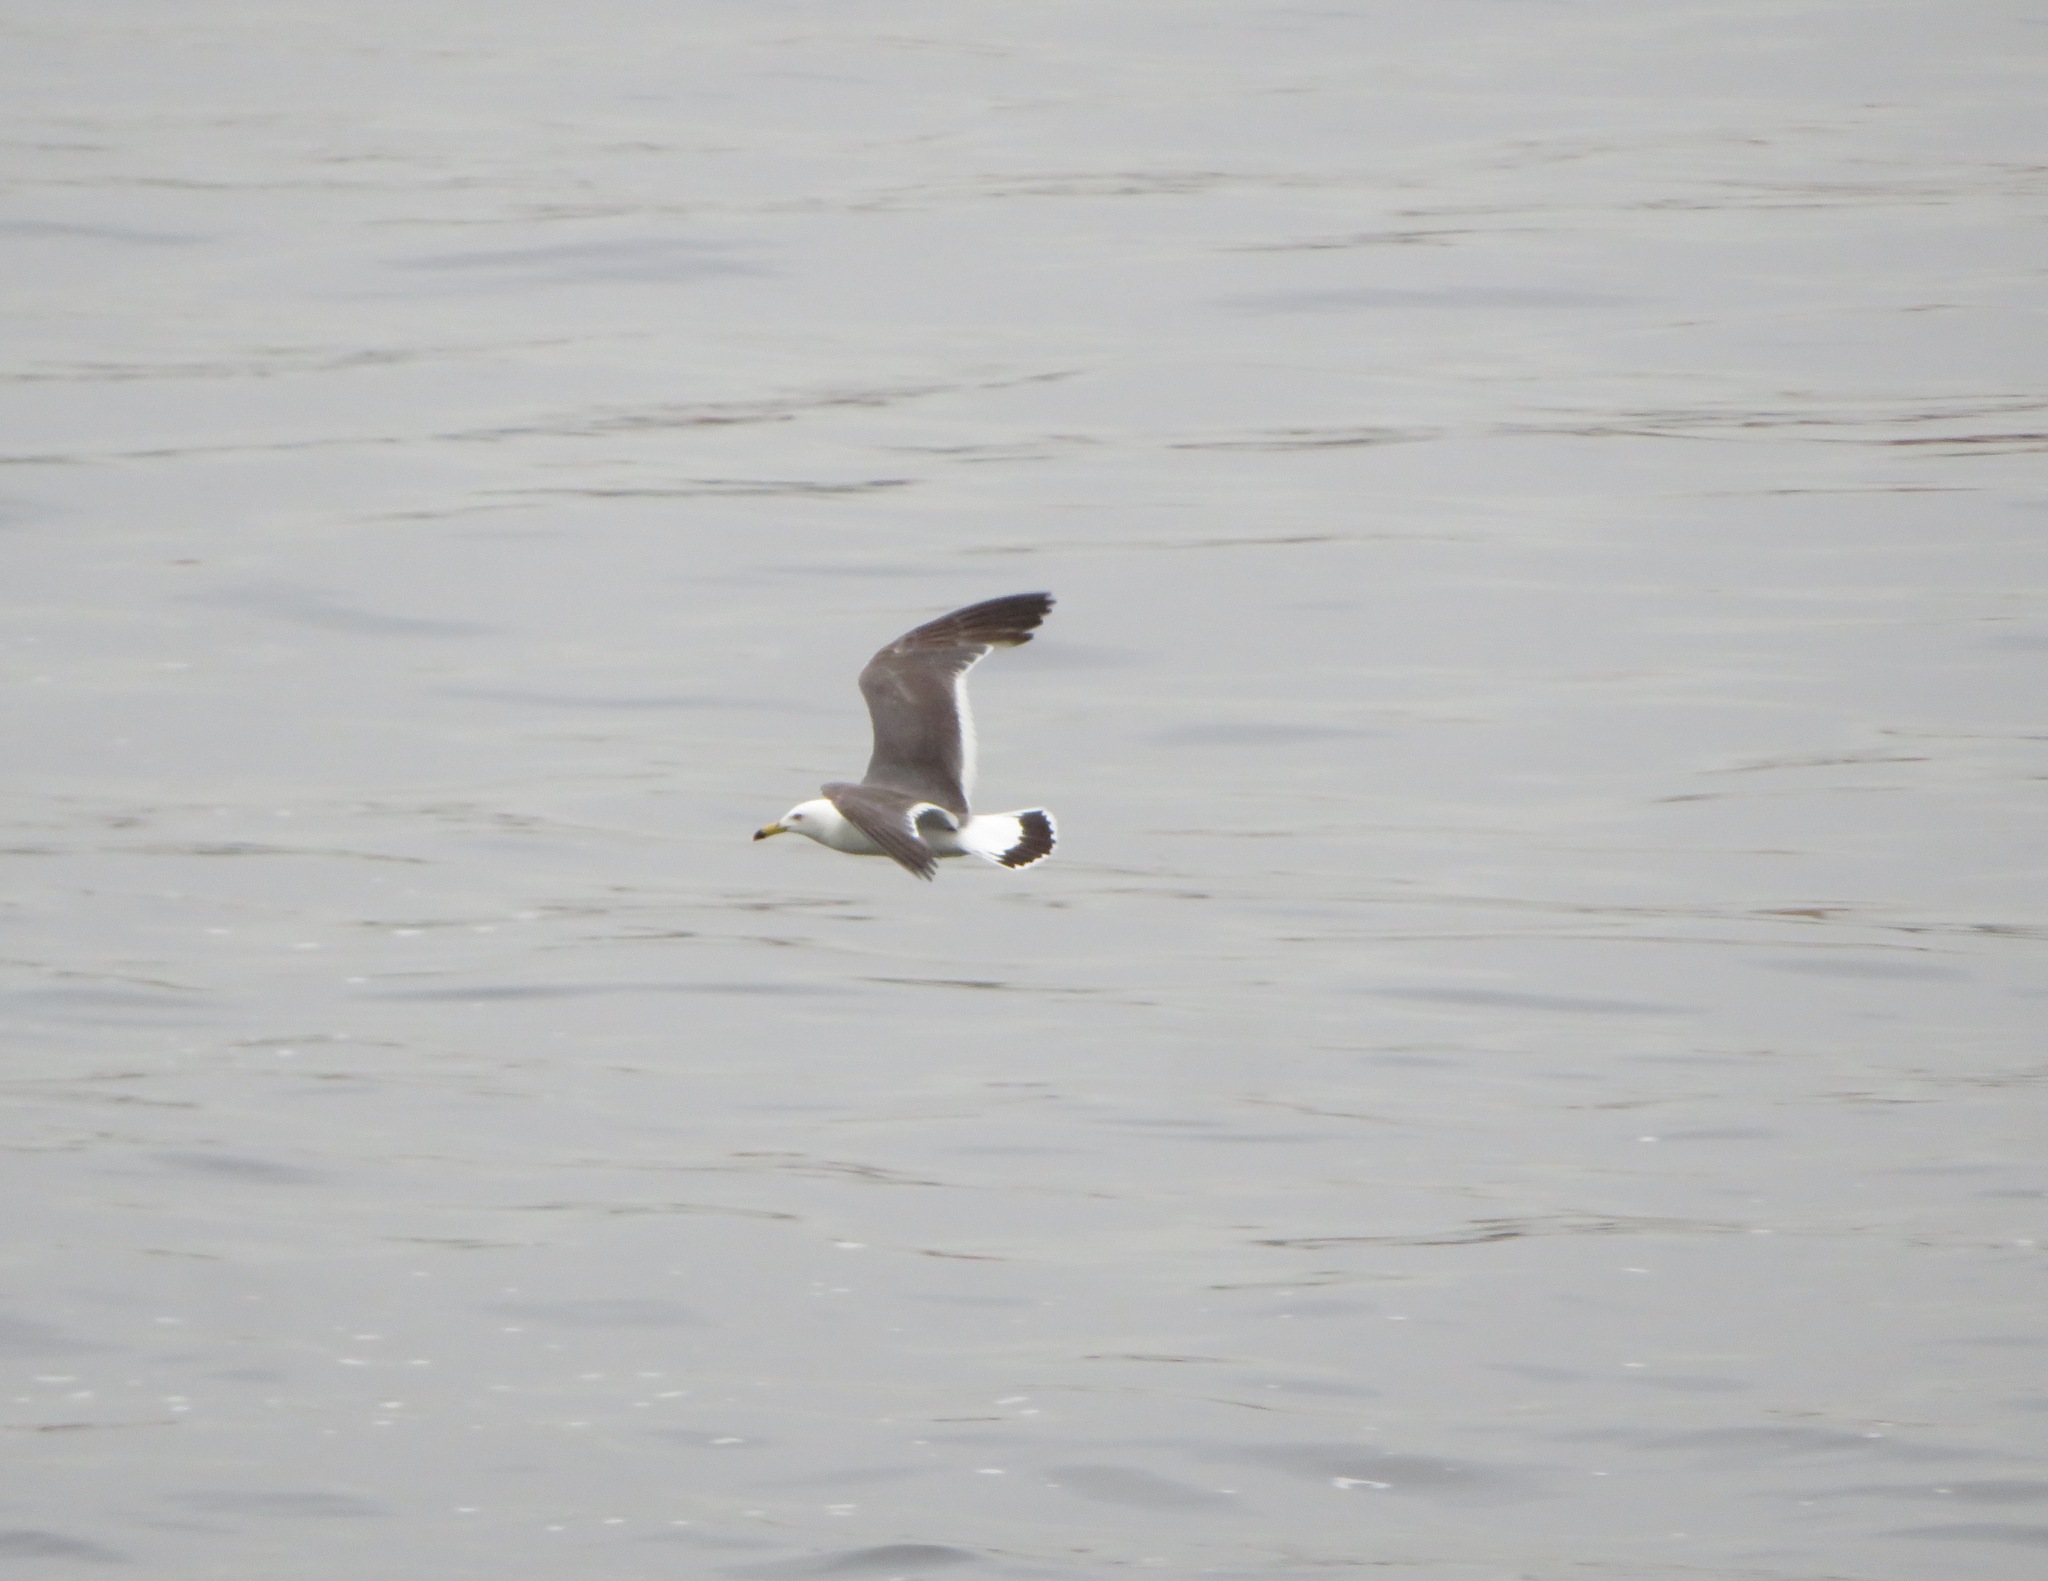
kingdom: Animalia
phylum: Chordata
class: Aves
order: Charadriiformes
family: Laridae
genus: Larus
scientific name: Larus crassirostris
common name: Black-tailed gull
